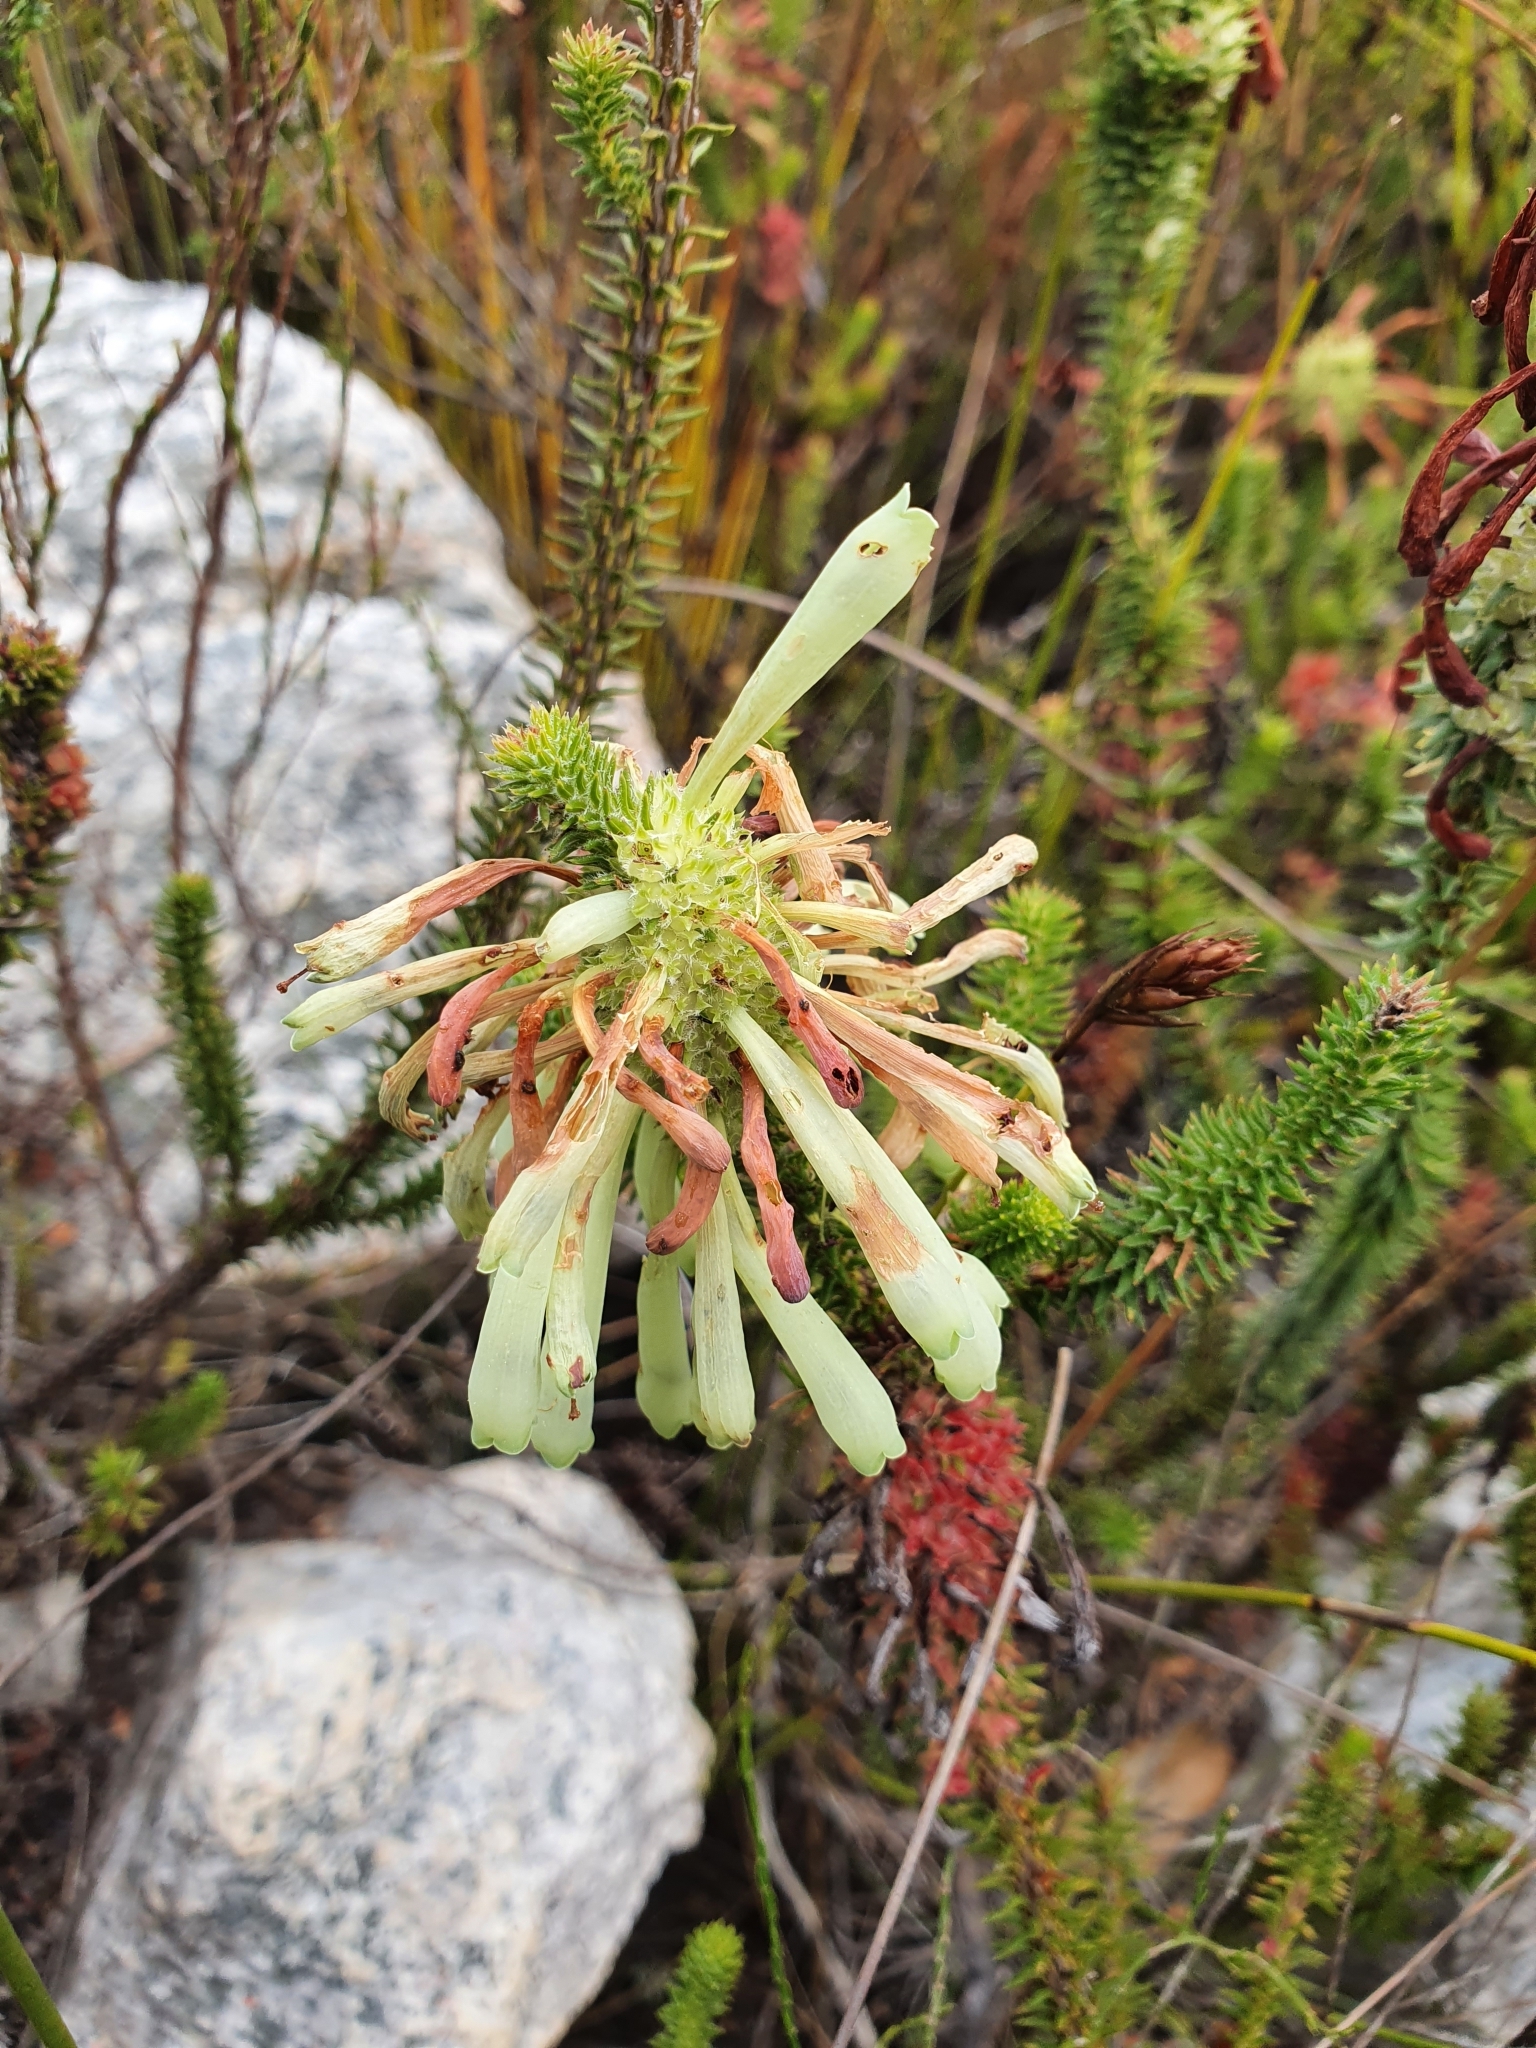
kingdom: Plantae
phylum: Tracheophyta
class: Magnoliopsida
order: Ericales
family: Ericaceae
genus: Erica
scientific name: Erica sessiliflora
